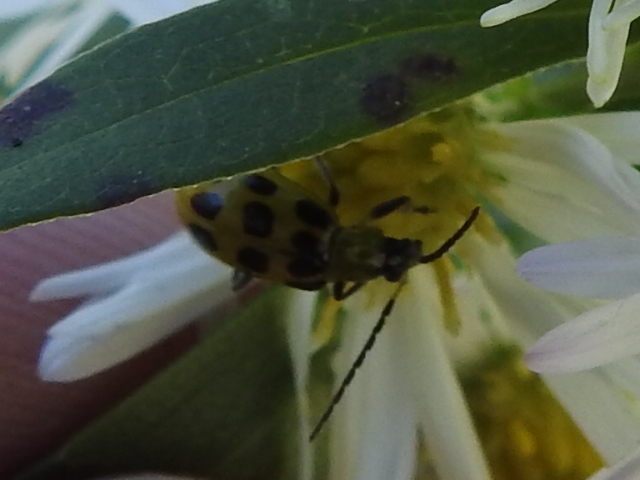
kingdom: Animalia
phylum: Arthropoda
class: Insecta
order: Coleoptera
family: Chrysomelidae
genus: Diabrotica
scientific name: Diabrotica undecimpunctata
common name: Spotted cucumber beetle
